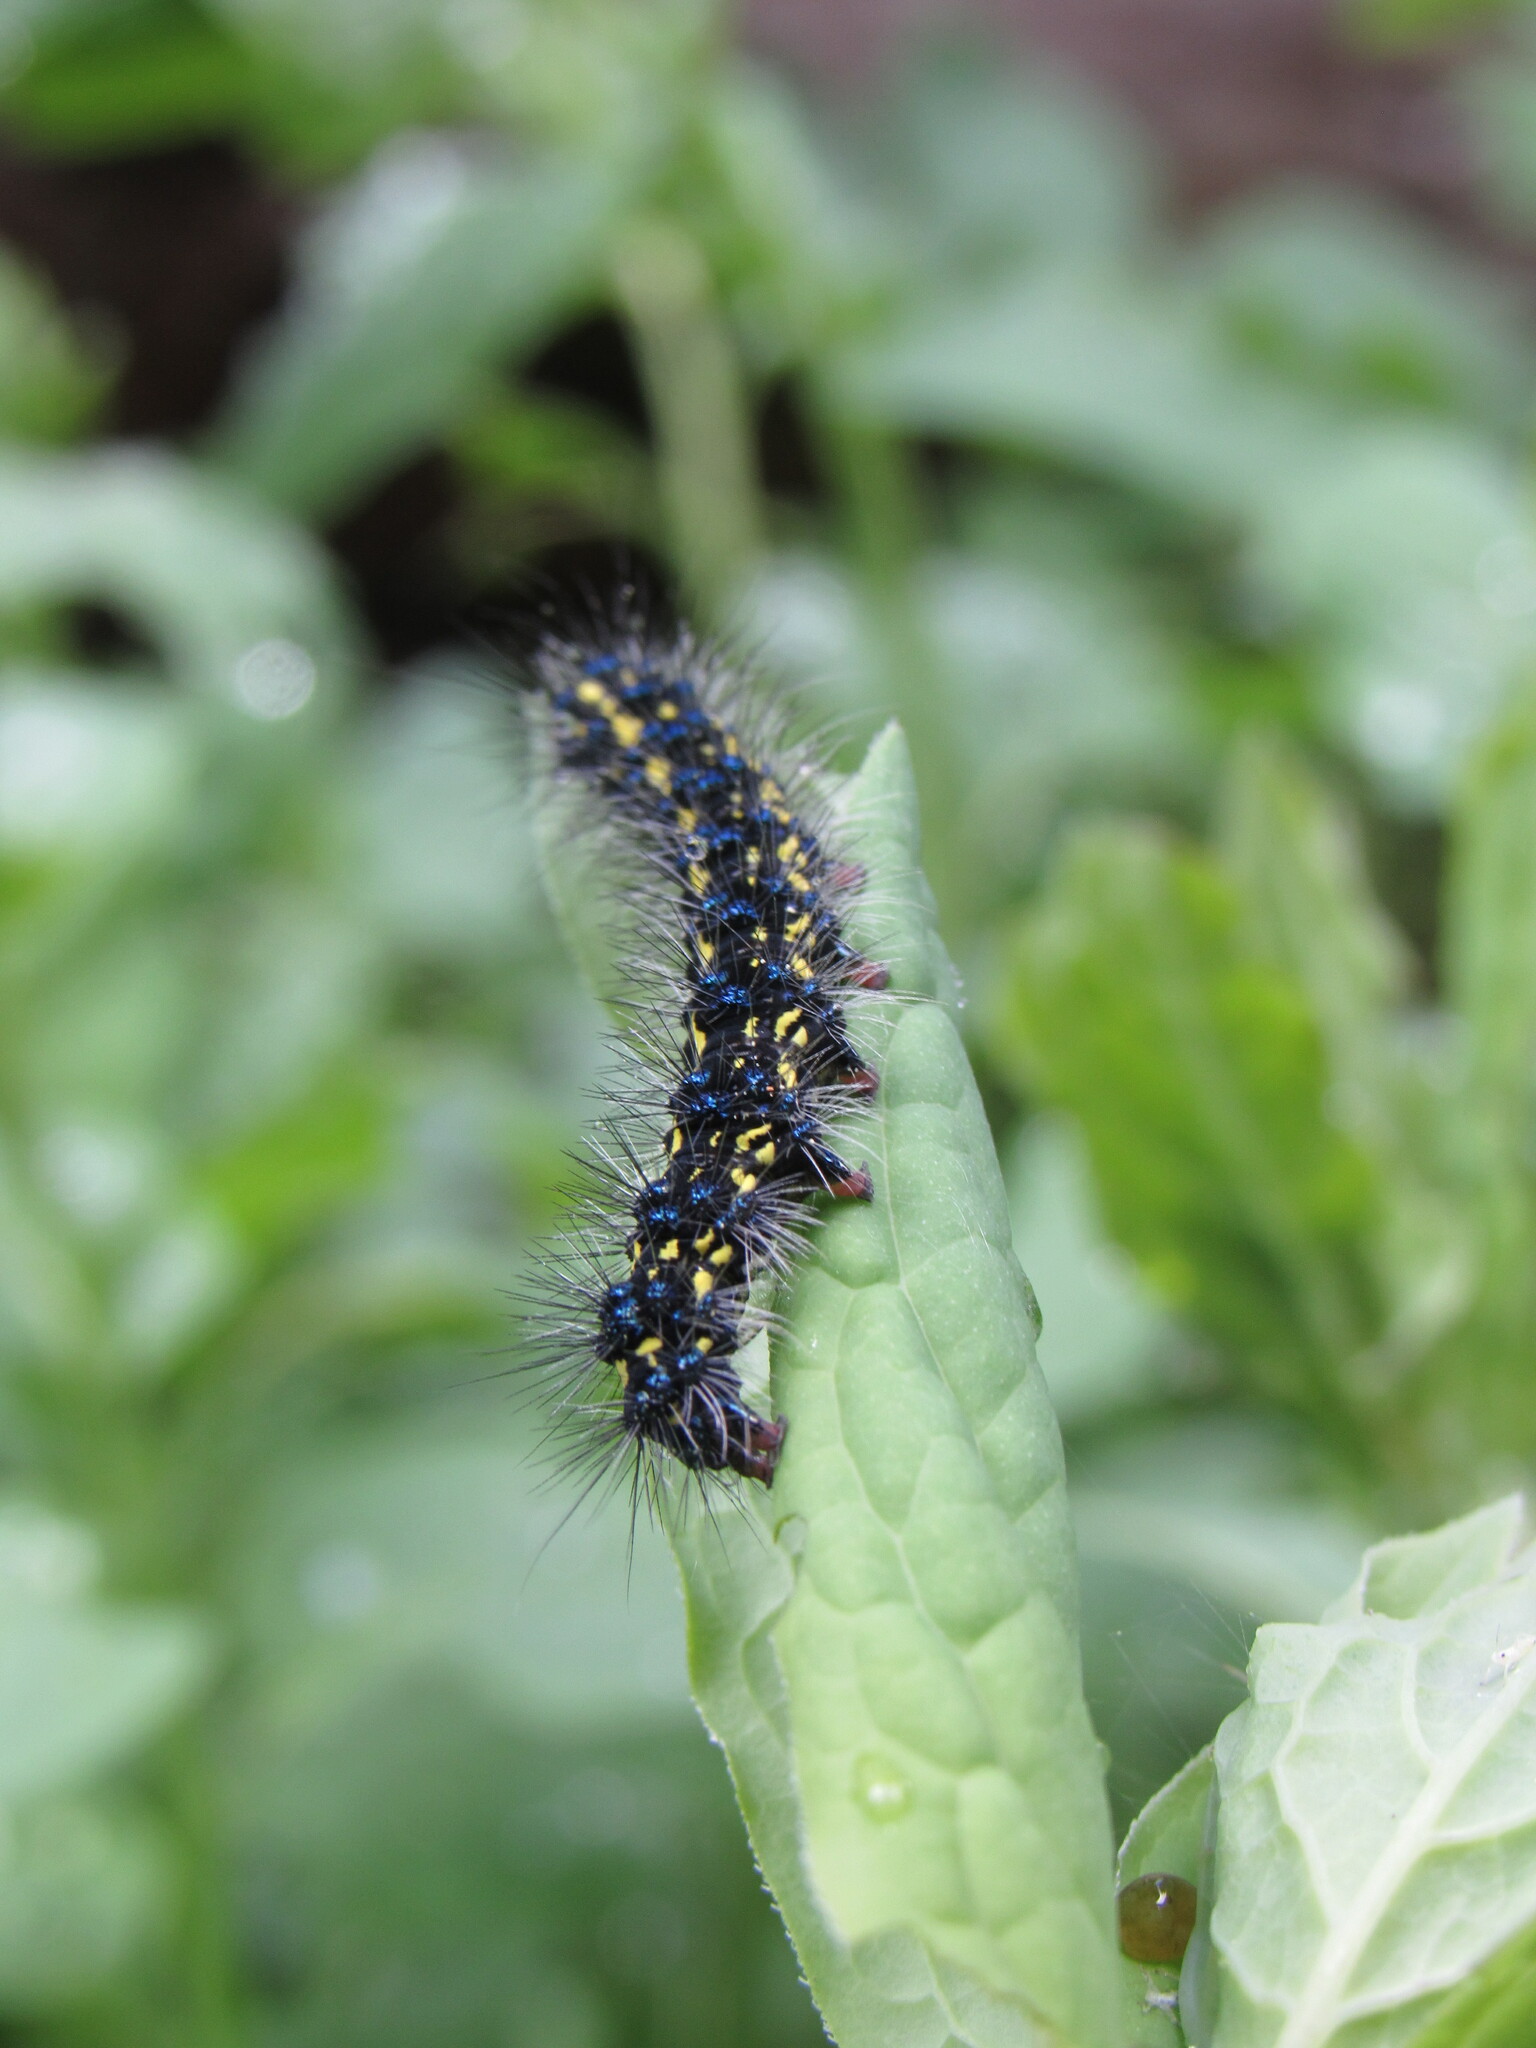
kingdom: Animalia
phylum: Arthropoda
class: Insecta
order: Lepidoptera
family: Erebidae
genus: Gnophaela
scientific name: Gnophaela vermiculata
